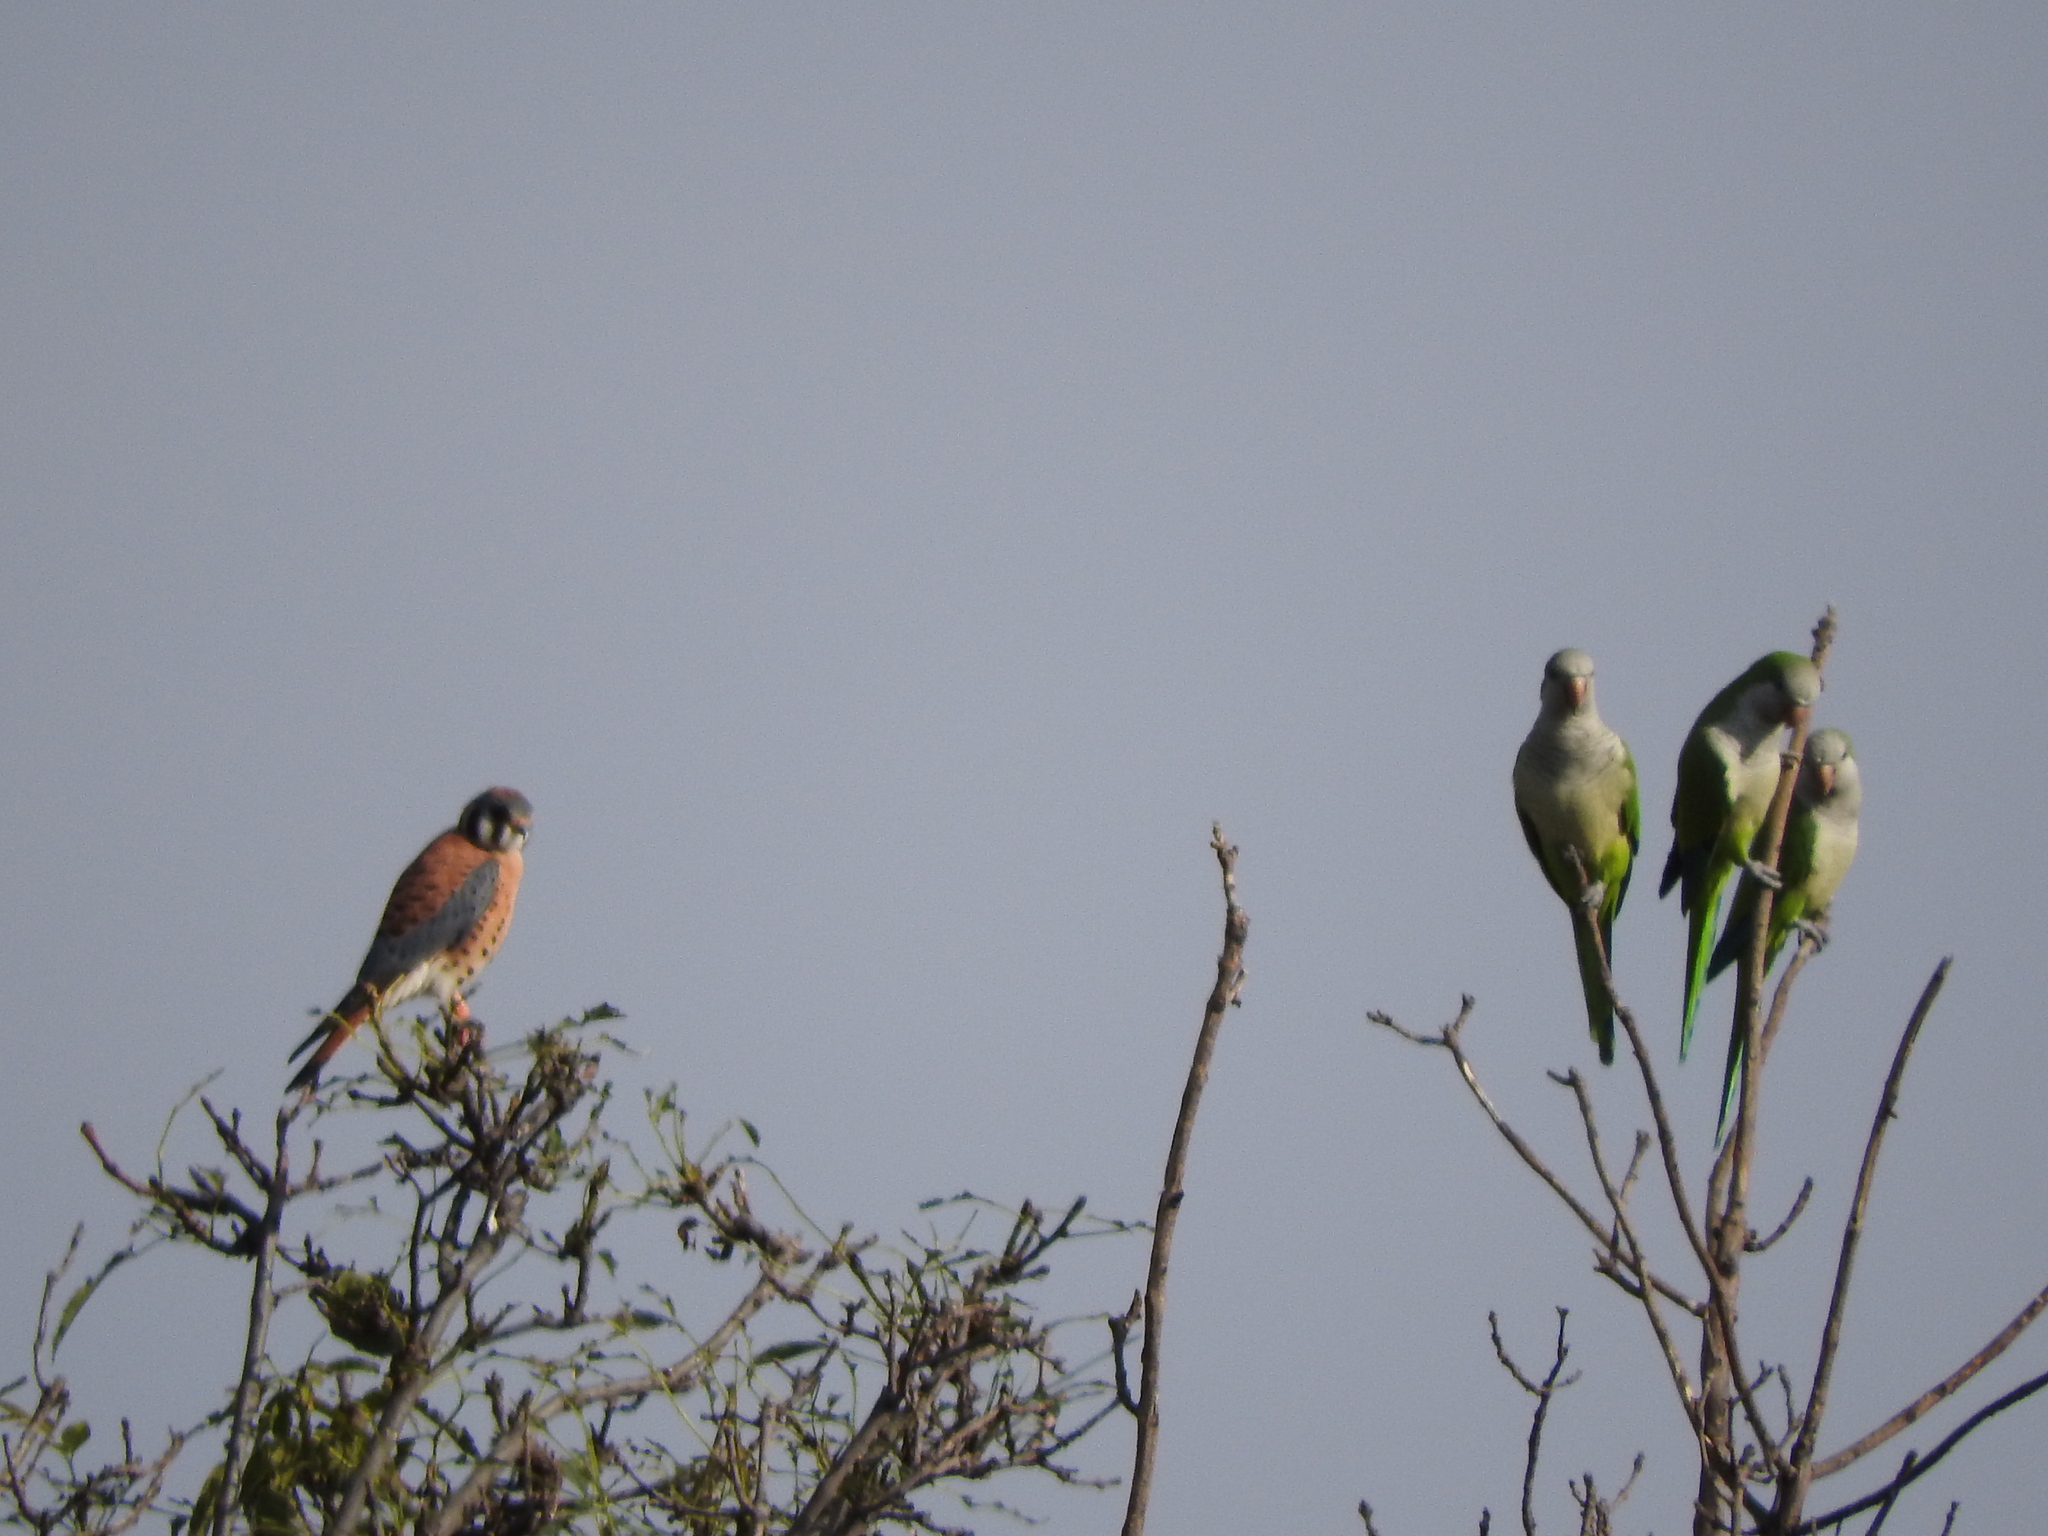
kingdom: Animalia
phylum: Chordata
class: Aves
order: Psittaciformes
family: Psittacidae
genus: Myiopsitta
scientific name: Myiopsitta monachus
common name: Monk parakeet
